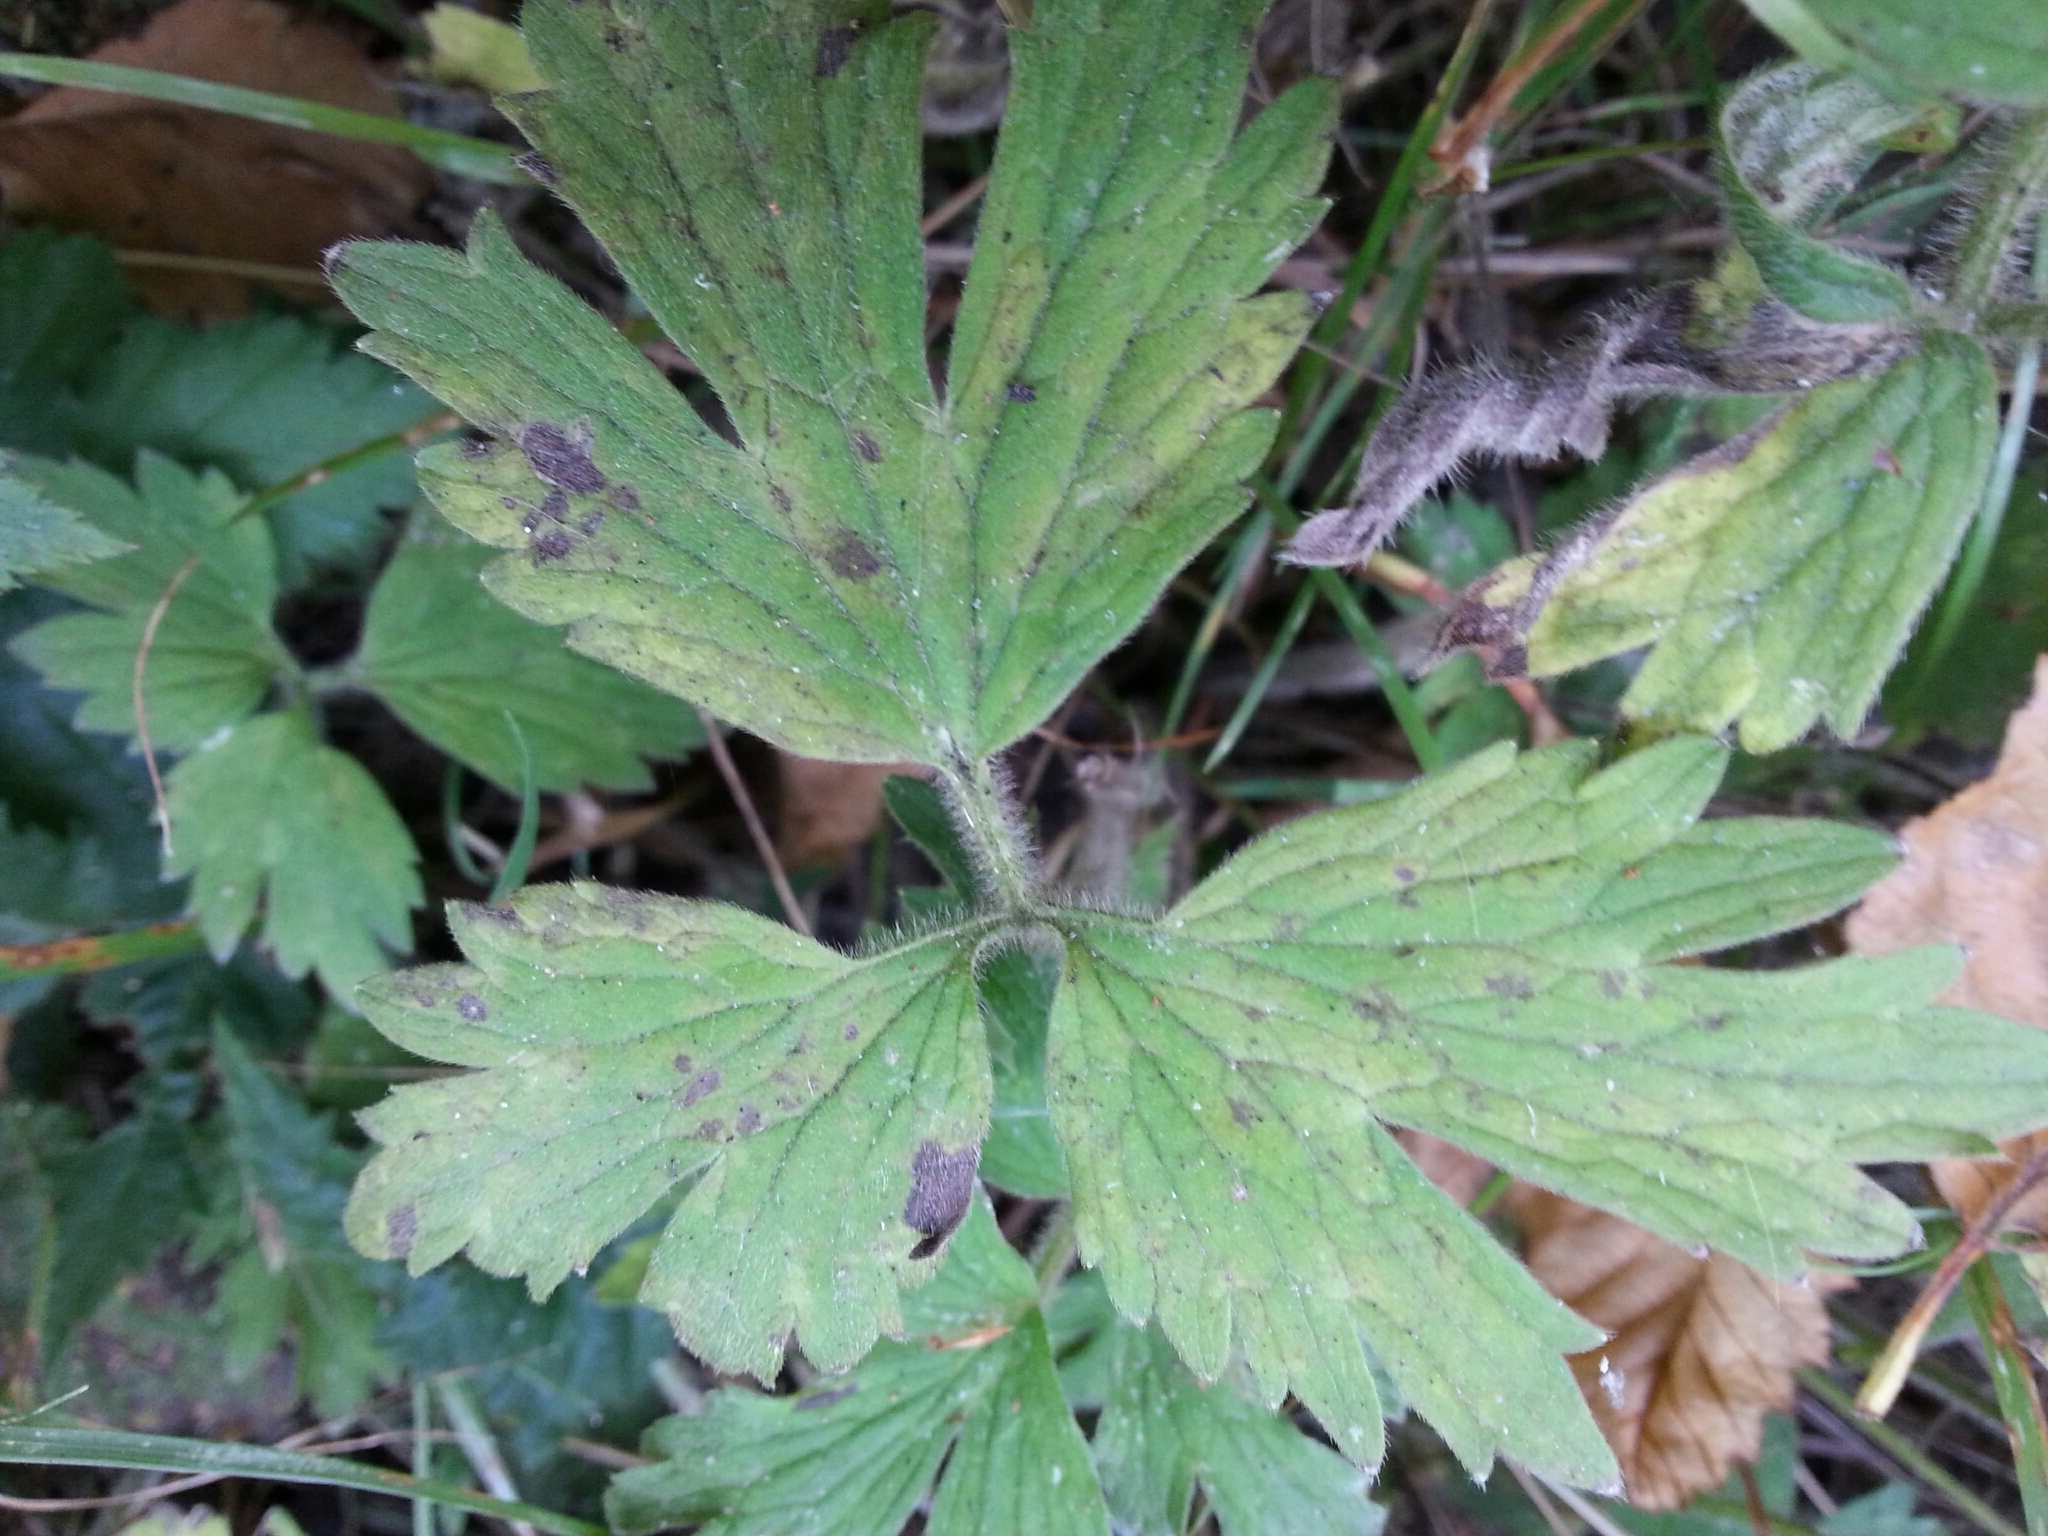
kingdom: Plantae
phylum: Tracheophyta
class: Magnoliopsida
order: Ranunculales
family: Ranunculaceae
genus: Ranunculus
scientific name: Ranunculus repens
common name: Creeping buttercup
